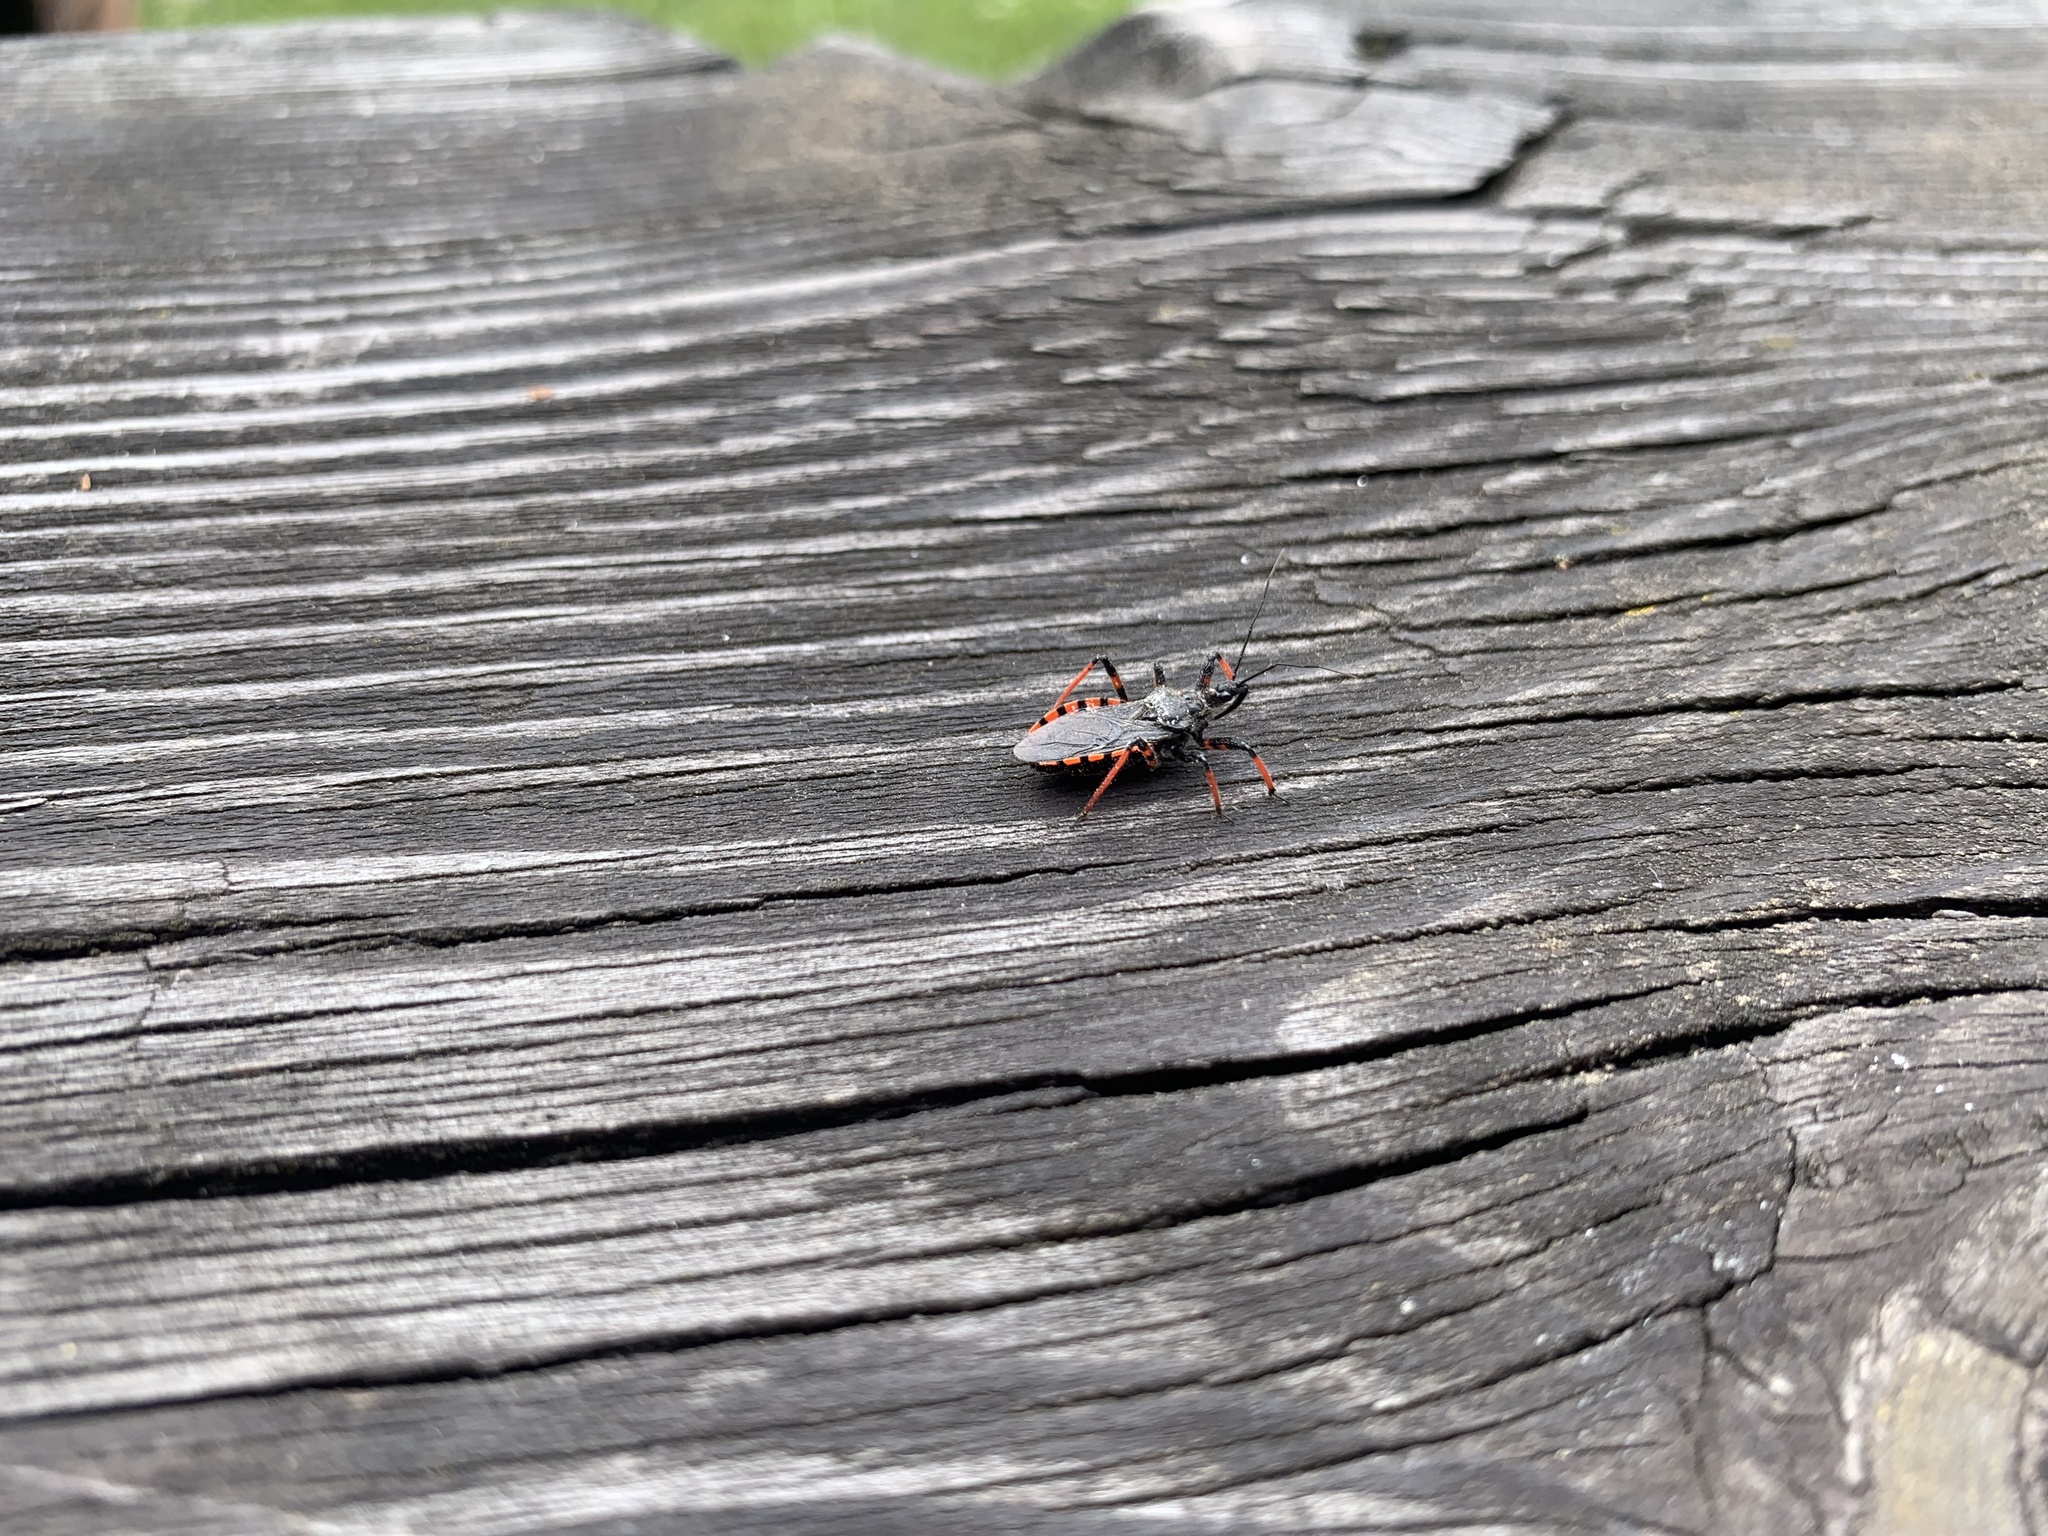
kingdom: Animalia
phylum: Arthropoda
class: Insecta
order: Hemiptera
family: Reduviidae
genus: Rhynocoris
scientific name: Rhynocoris annulatus
